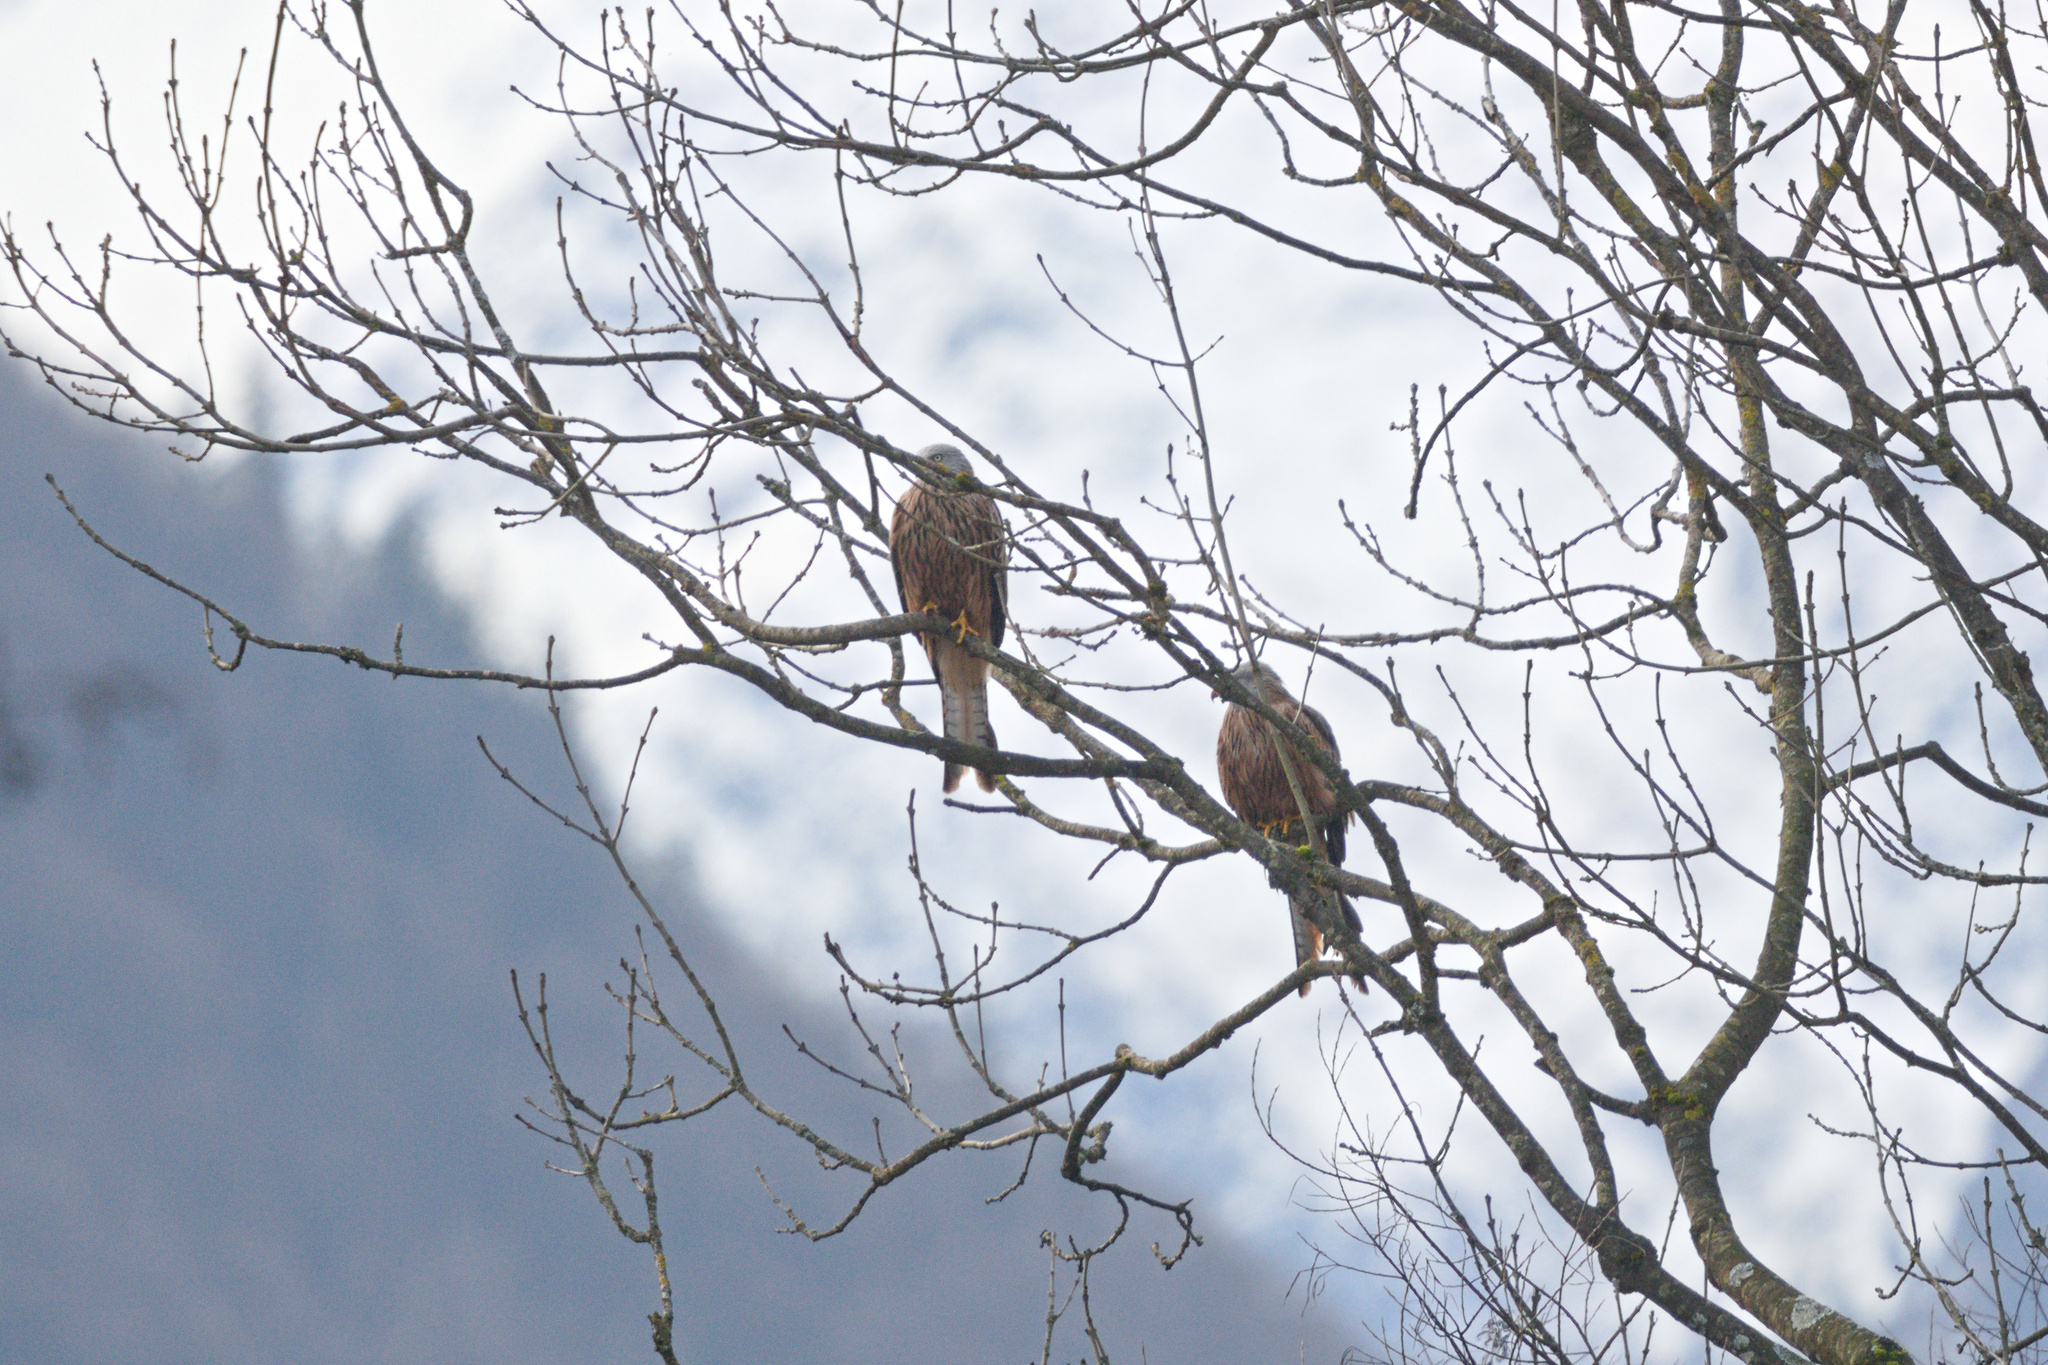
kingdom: Animalia
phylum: Chordata
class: Aves
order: Accipitriformes
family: Accipitridae
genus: Milvus
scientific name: Milvus milvus
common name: Red kite
